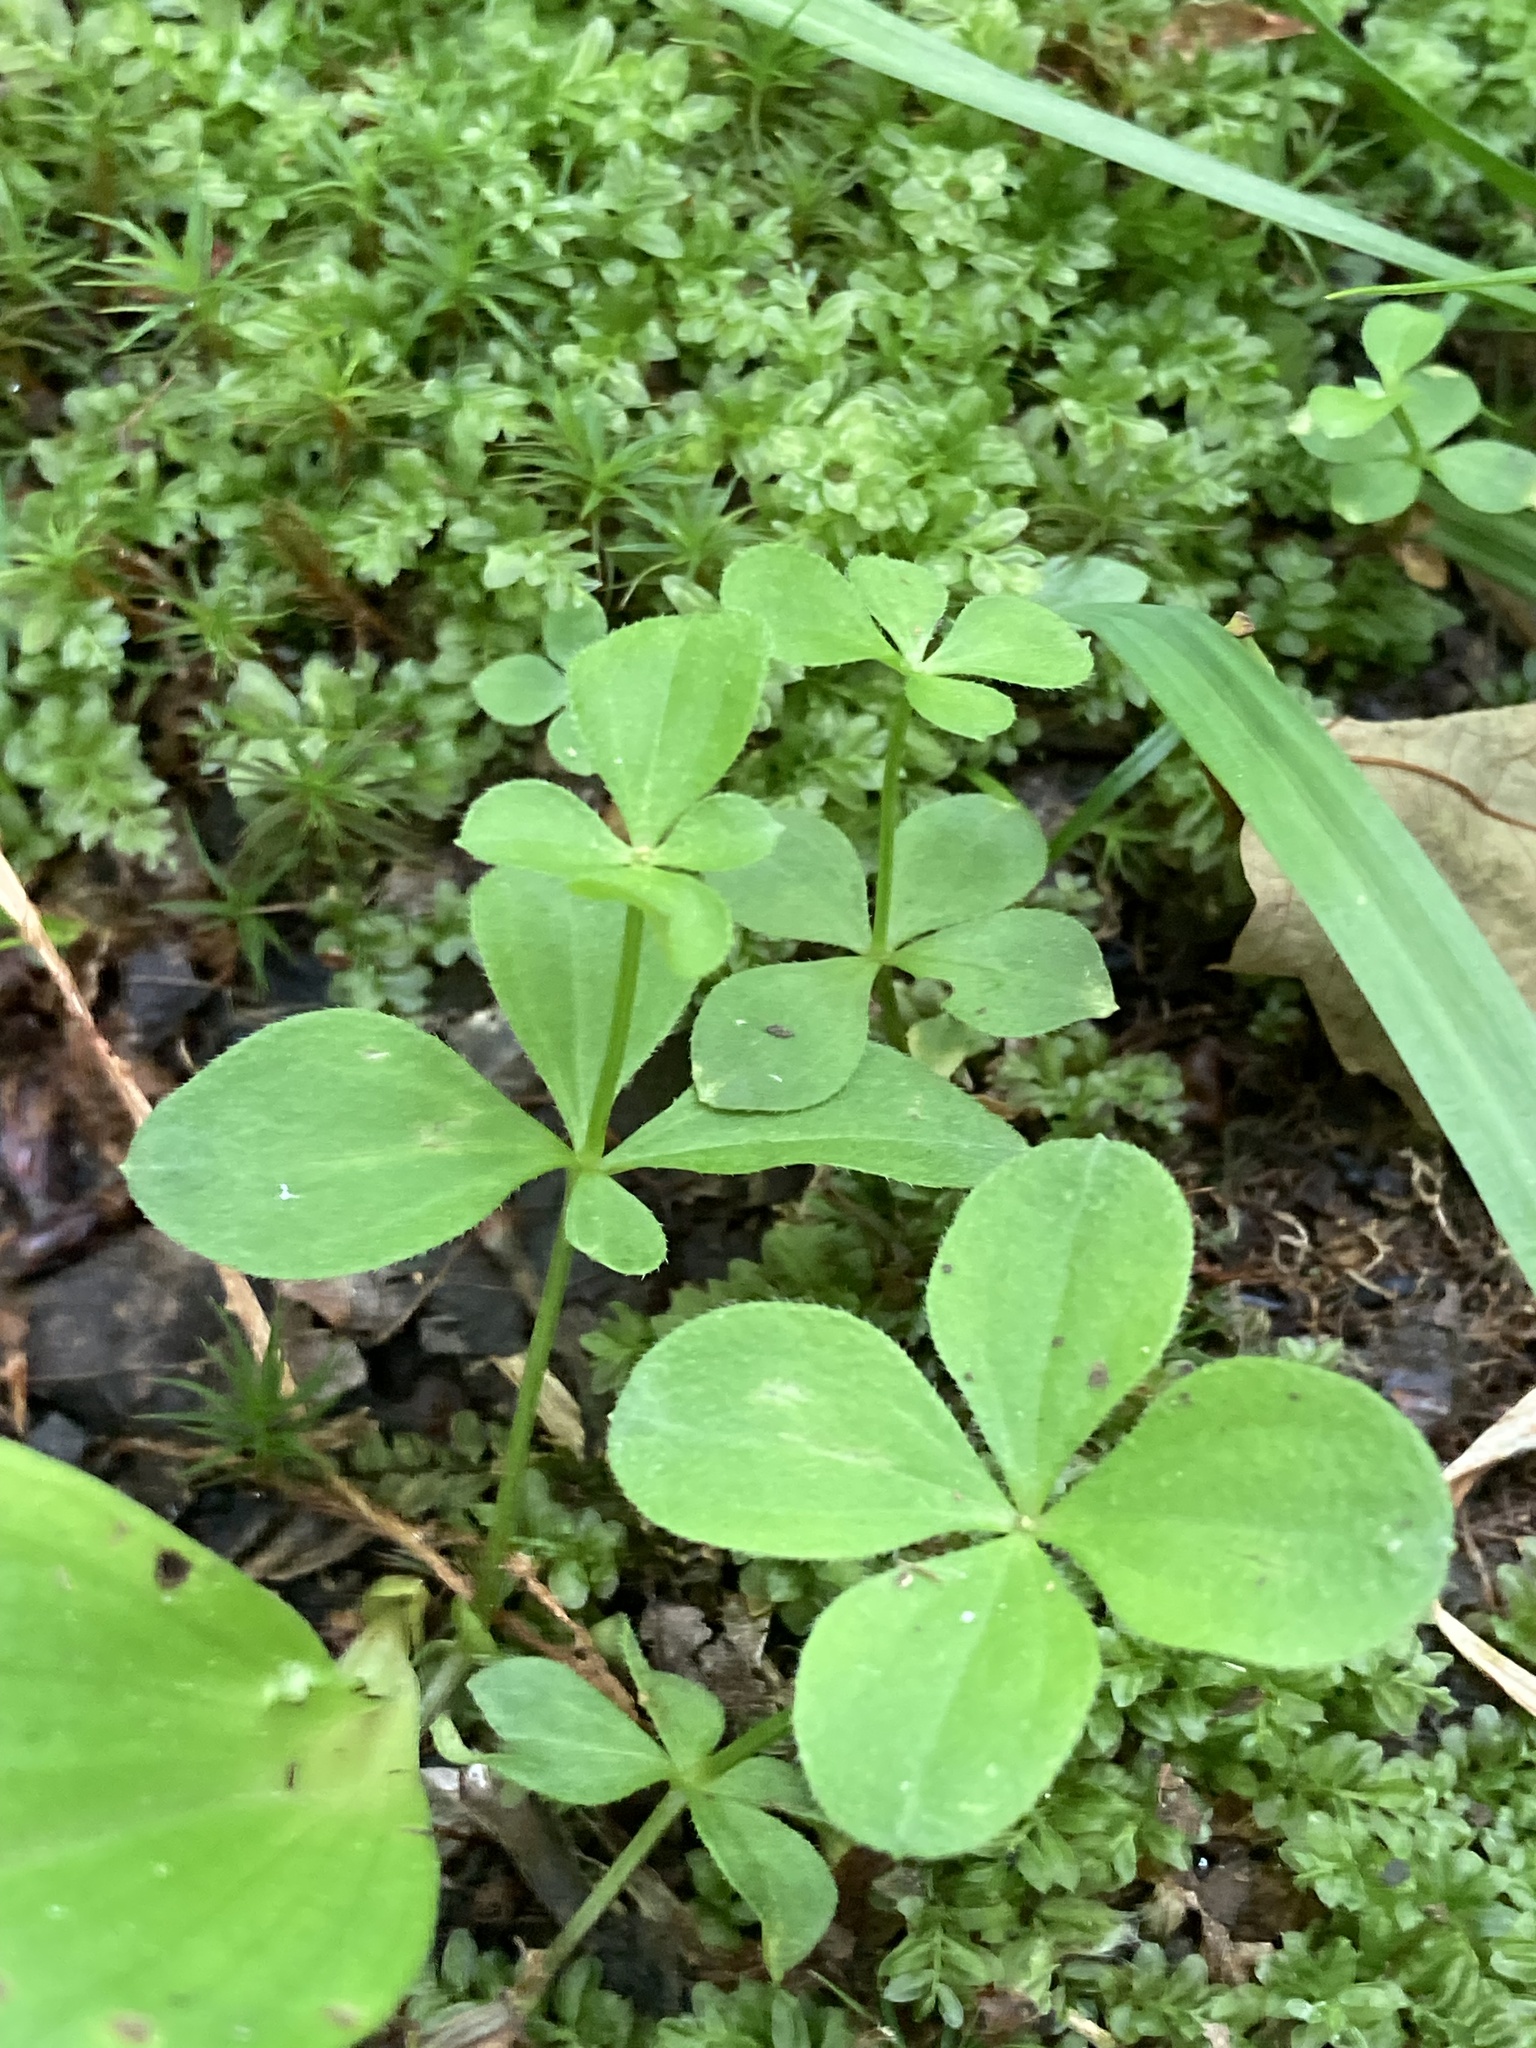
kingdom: Plantae
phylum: Tracheophyta
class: Magnoliopsida
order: Gentianales
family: Rubiaceae
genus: Galium
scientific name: Galium kamtschaticum
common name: Boreal bedstraw
